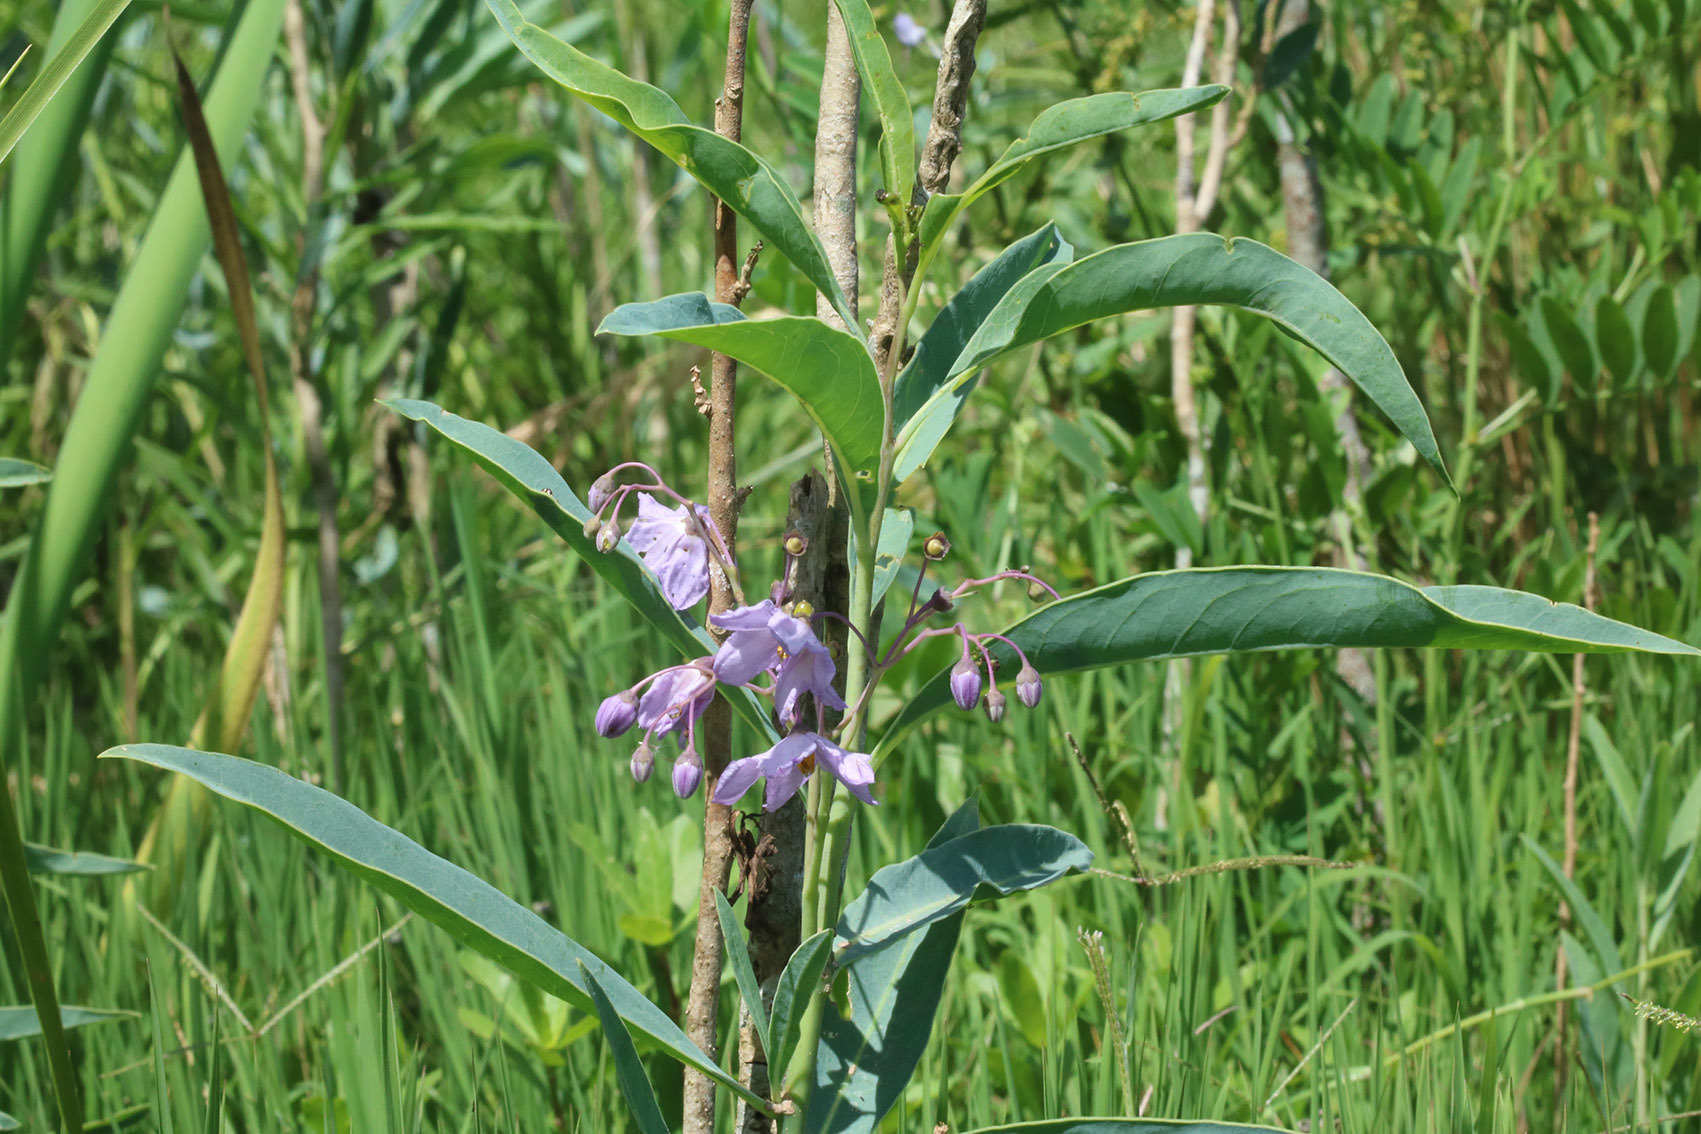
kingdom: Plantae
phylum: Tracheophyta
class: Magnoliopsida
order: Solanales
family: Solanaceae
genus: Solanum
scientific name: Solanum glaucophyllum
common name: Waxyleaf nightshade
